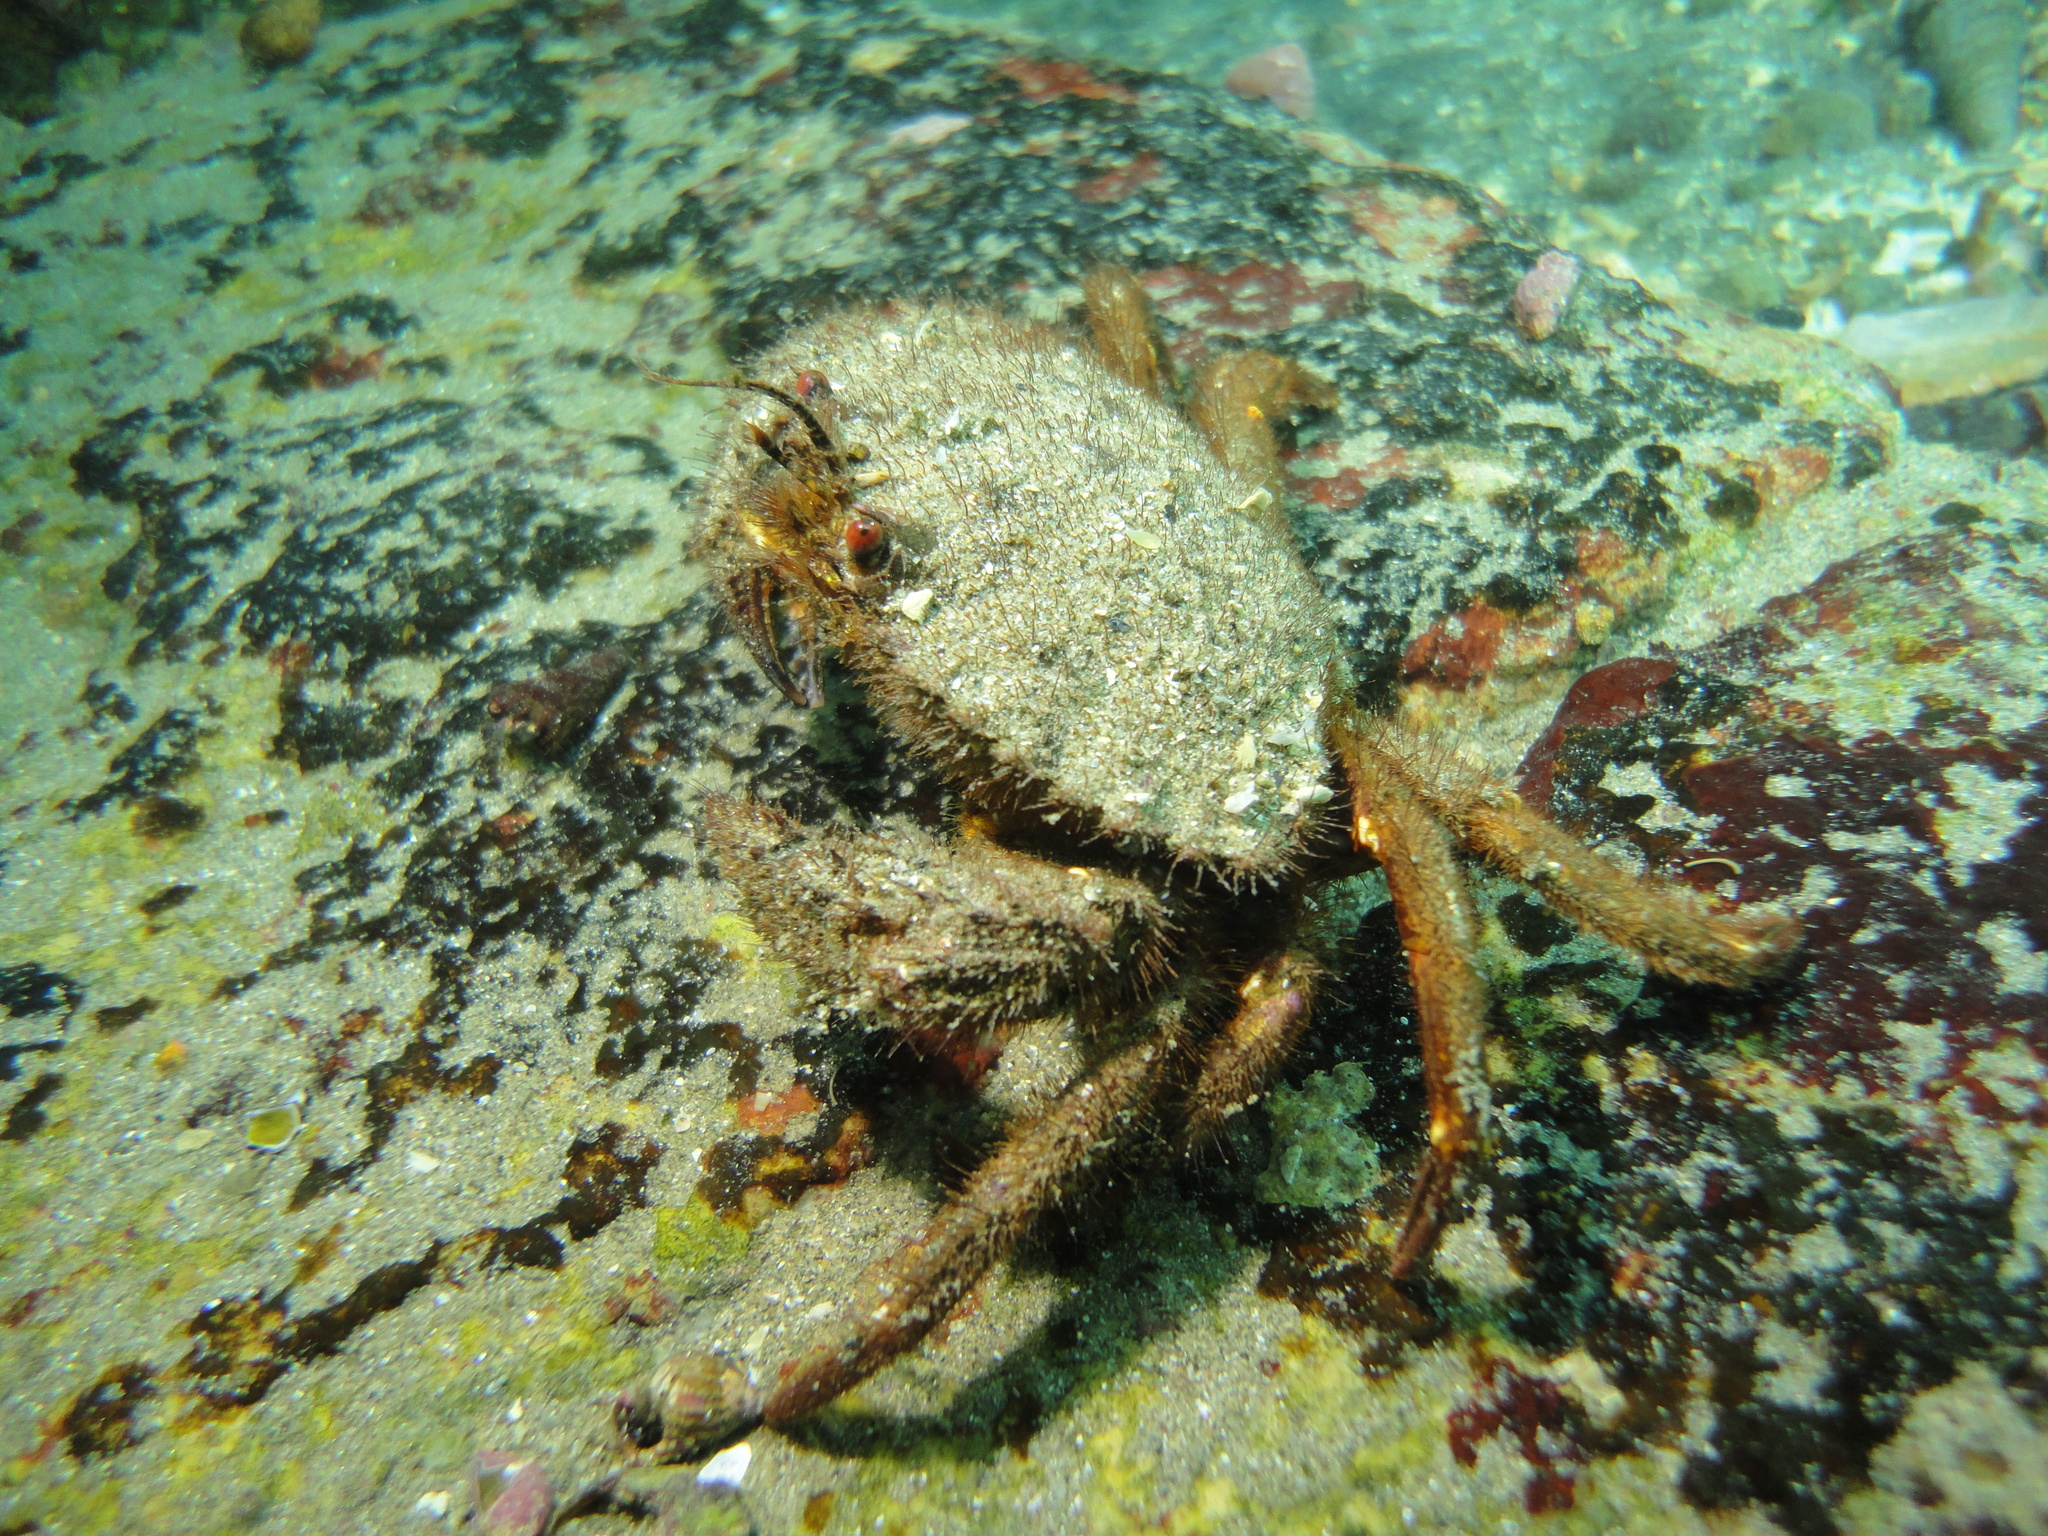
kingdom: Animalia
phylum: Arthropoda
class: Malacostraca
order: Decapoda
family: Cancridae
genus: Romaleon
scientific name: Romaleon setosum
